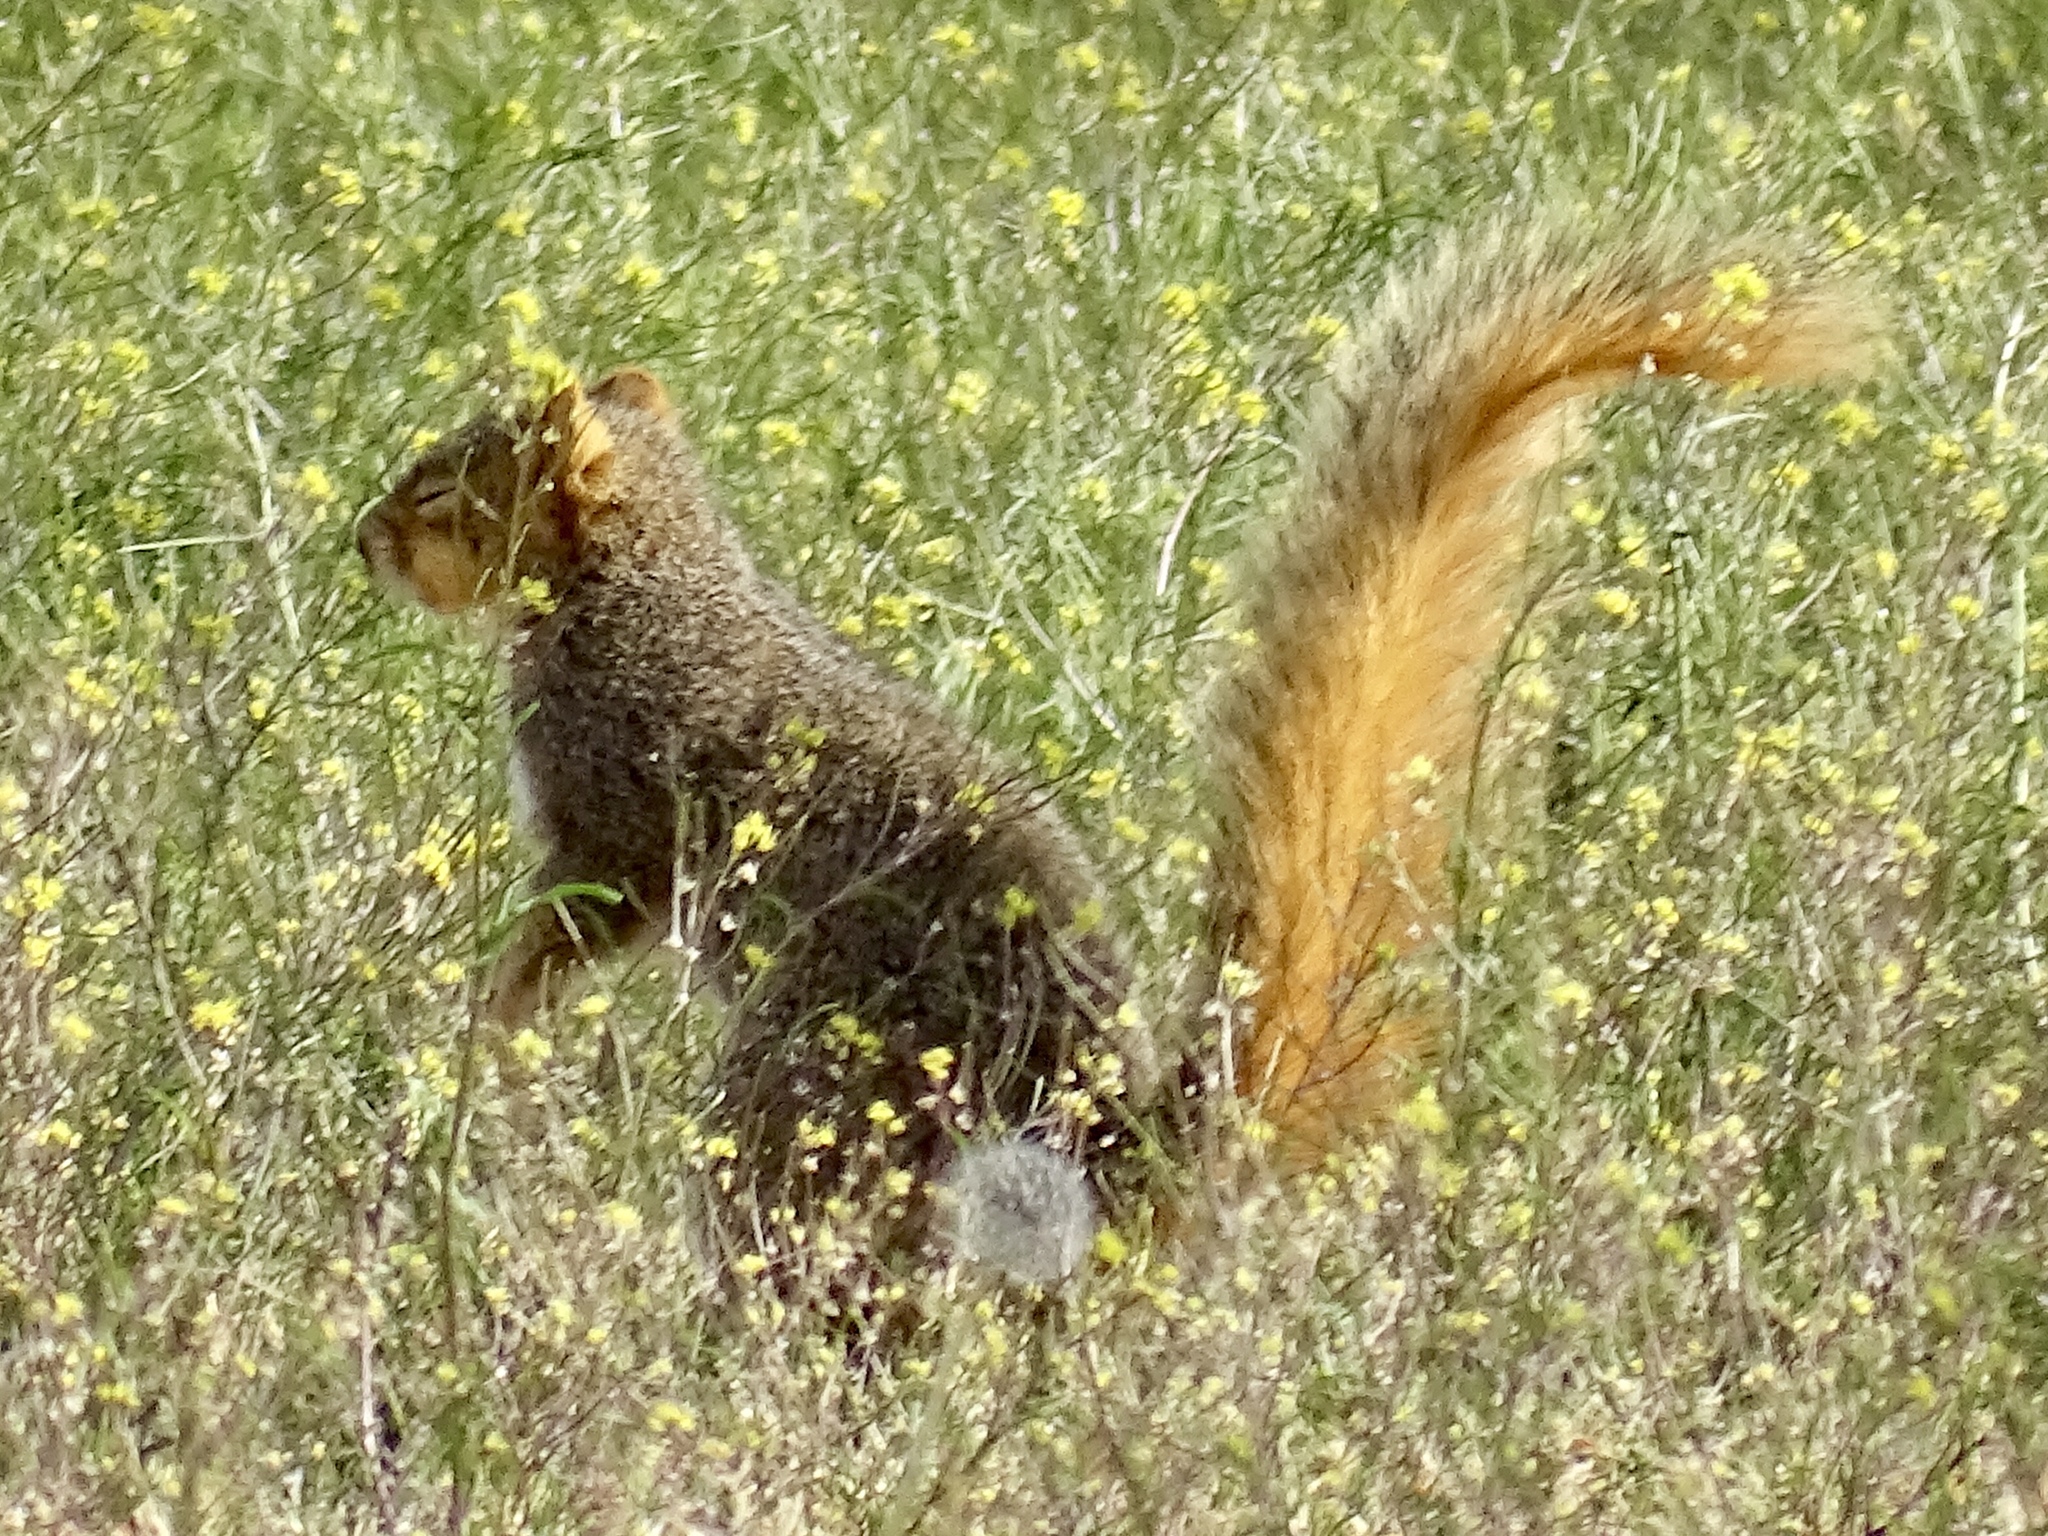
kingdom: Animalia
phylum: Chordata
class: Mammalia
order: Rodentia
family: Sciuridae
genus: Sciurus
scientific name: Sciurus niger
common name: Fox squirrel
